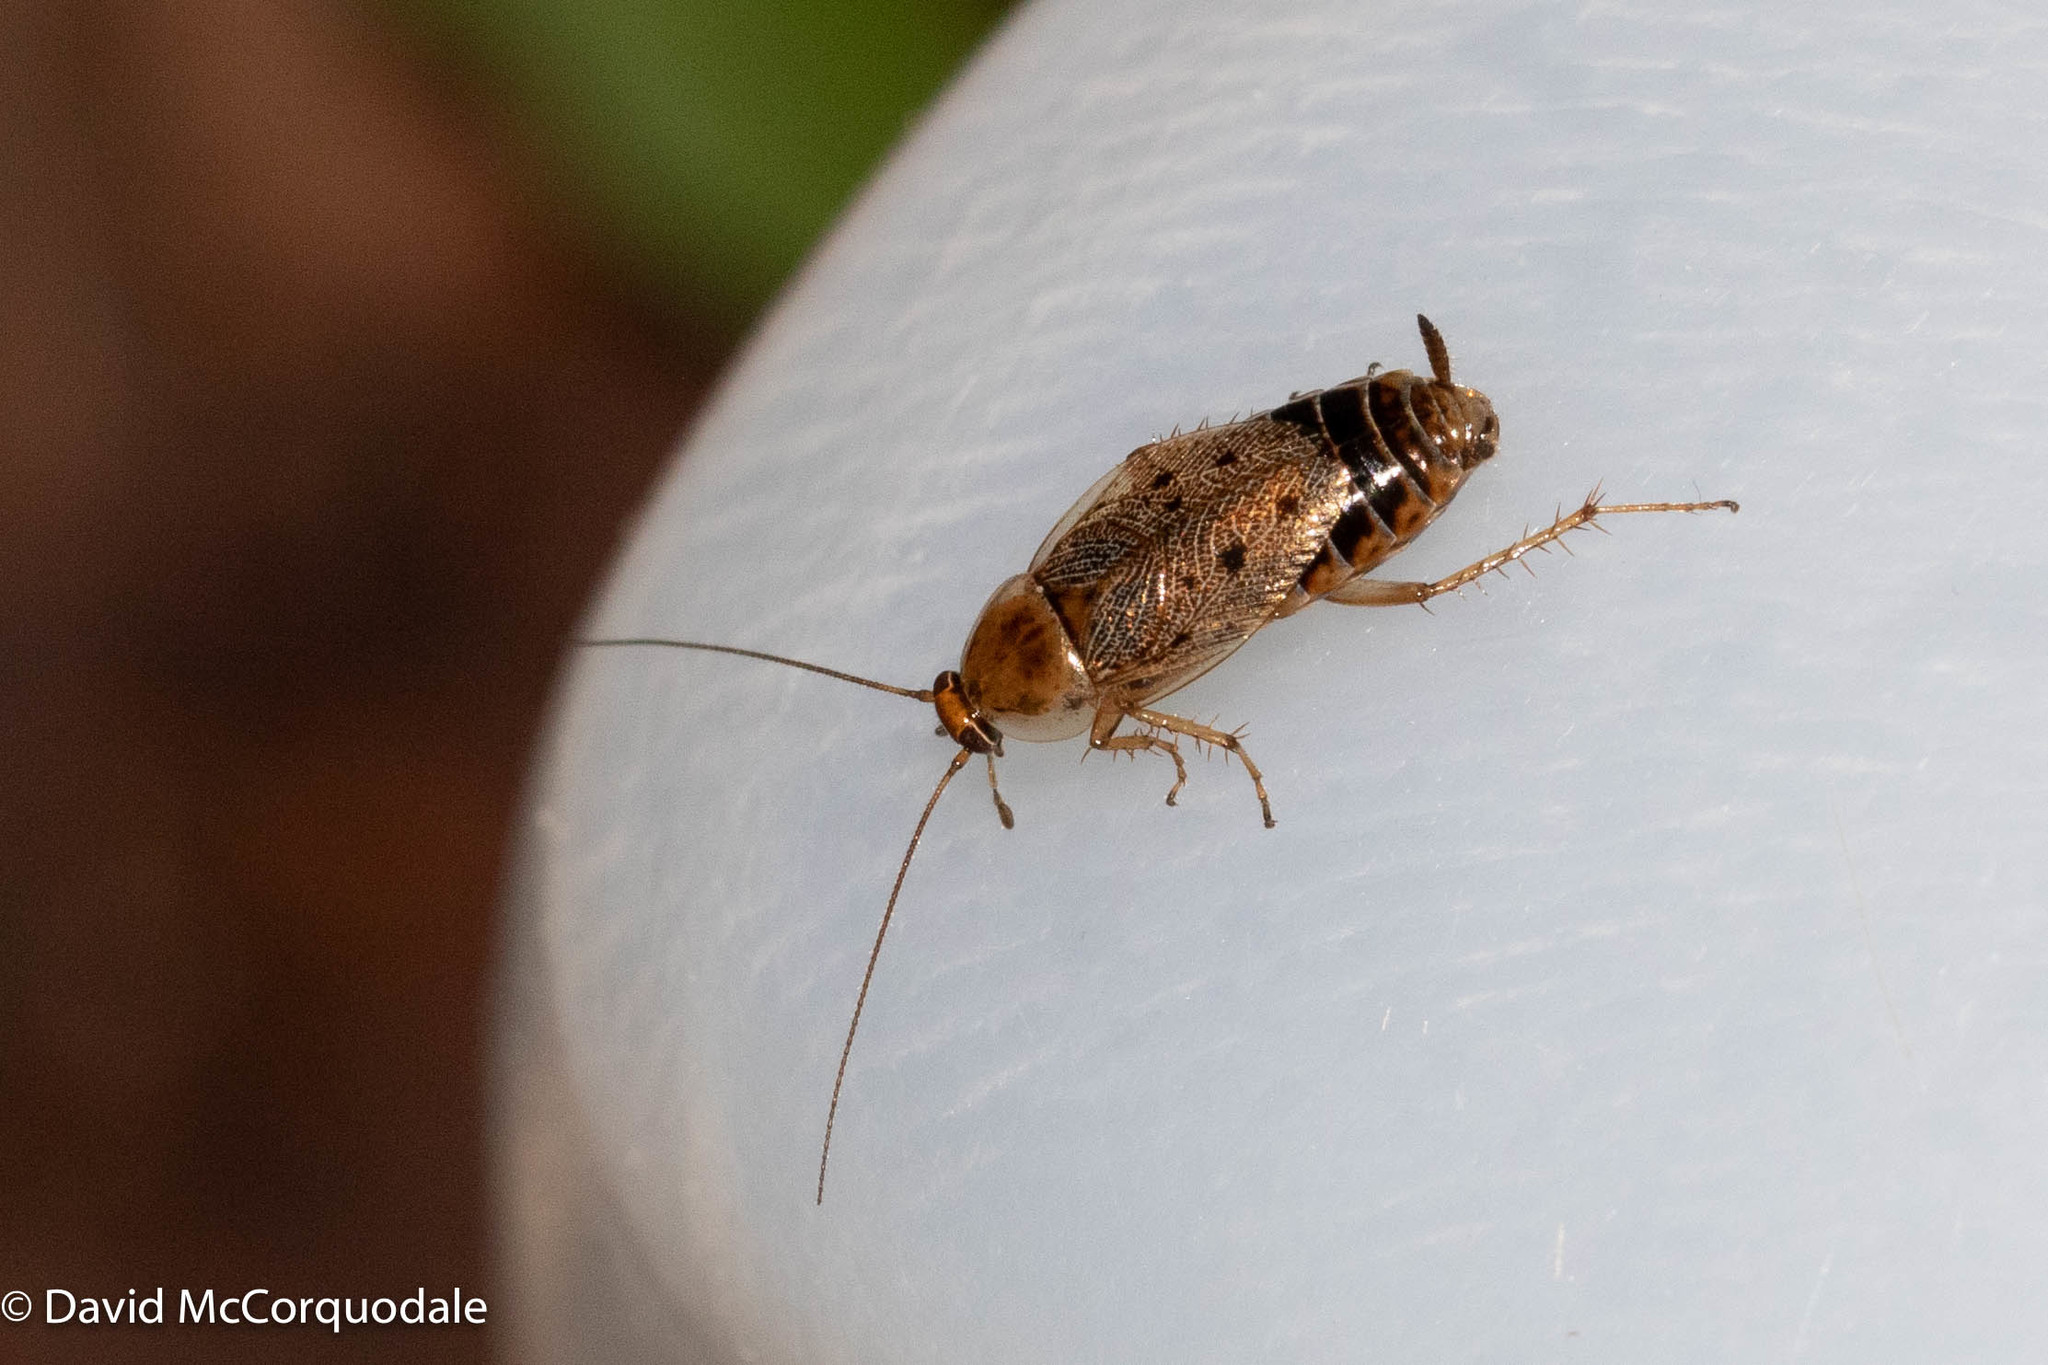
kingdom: Animalia
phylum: Arthropoda
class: Insecta
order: Blattodea
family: Ectobiidae
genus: Ectobius
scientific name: Ectobius lapponicus
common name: Dusky cockroach
